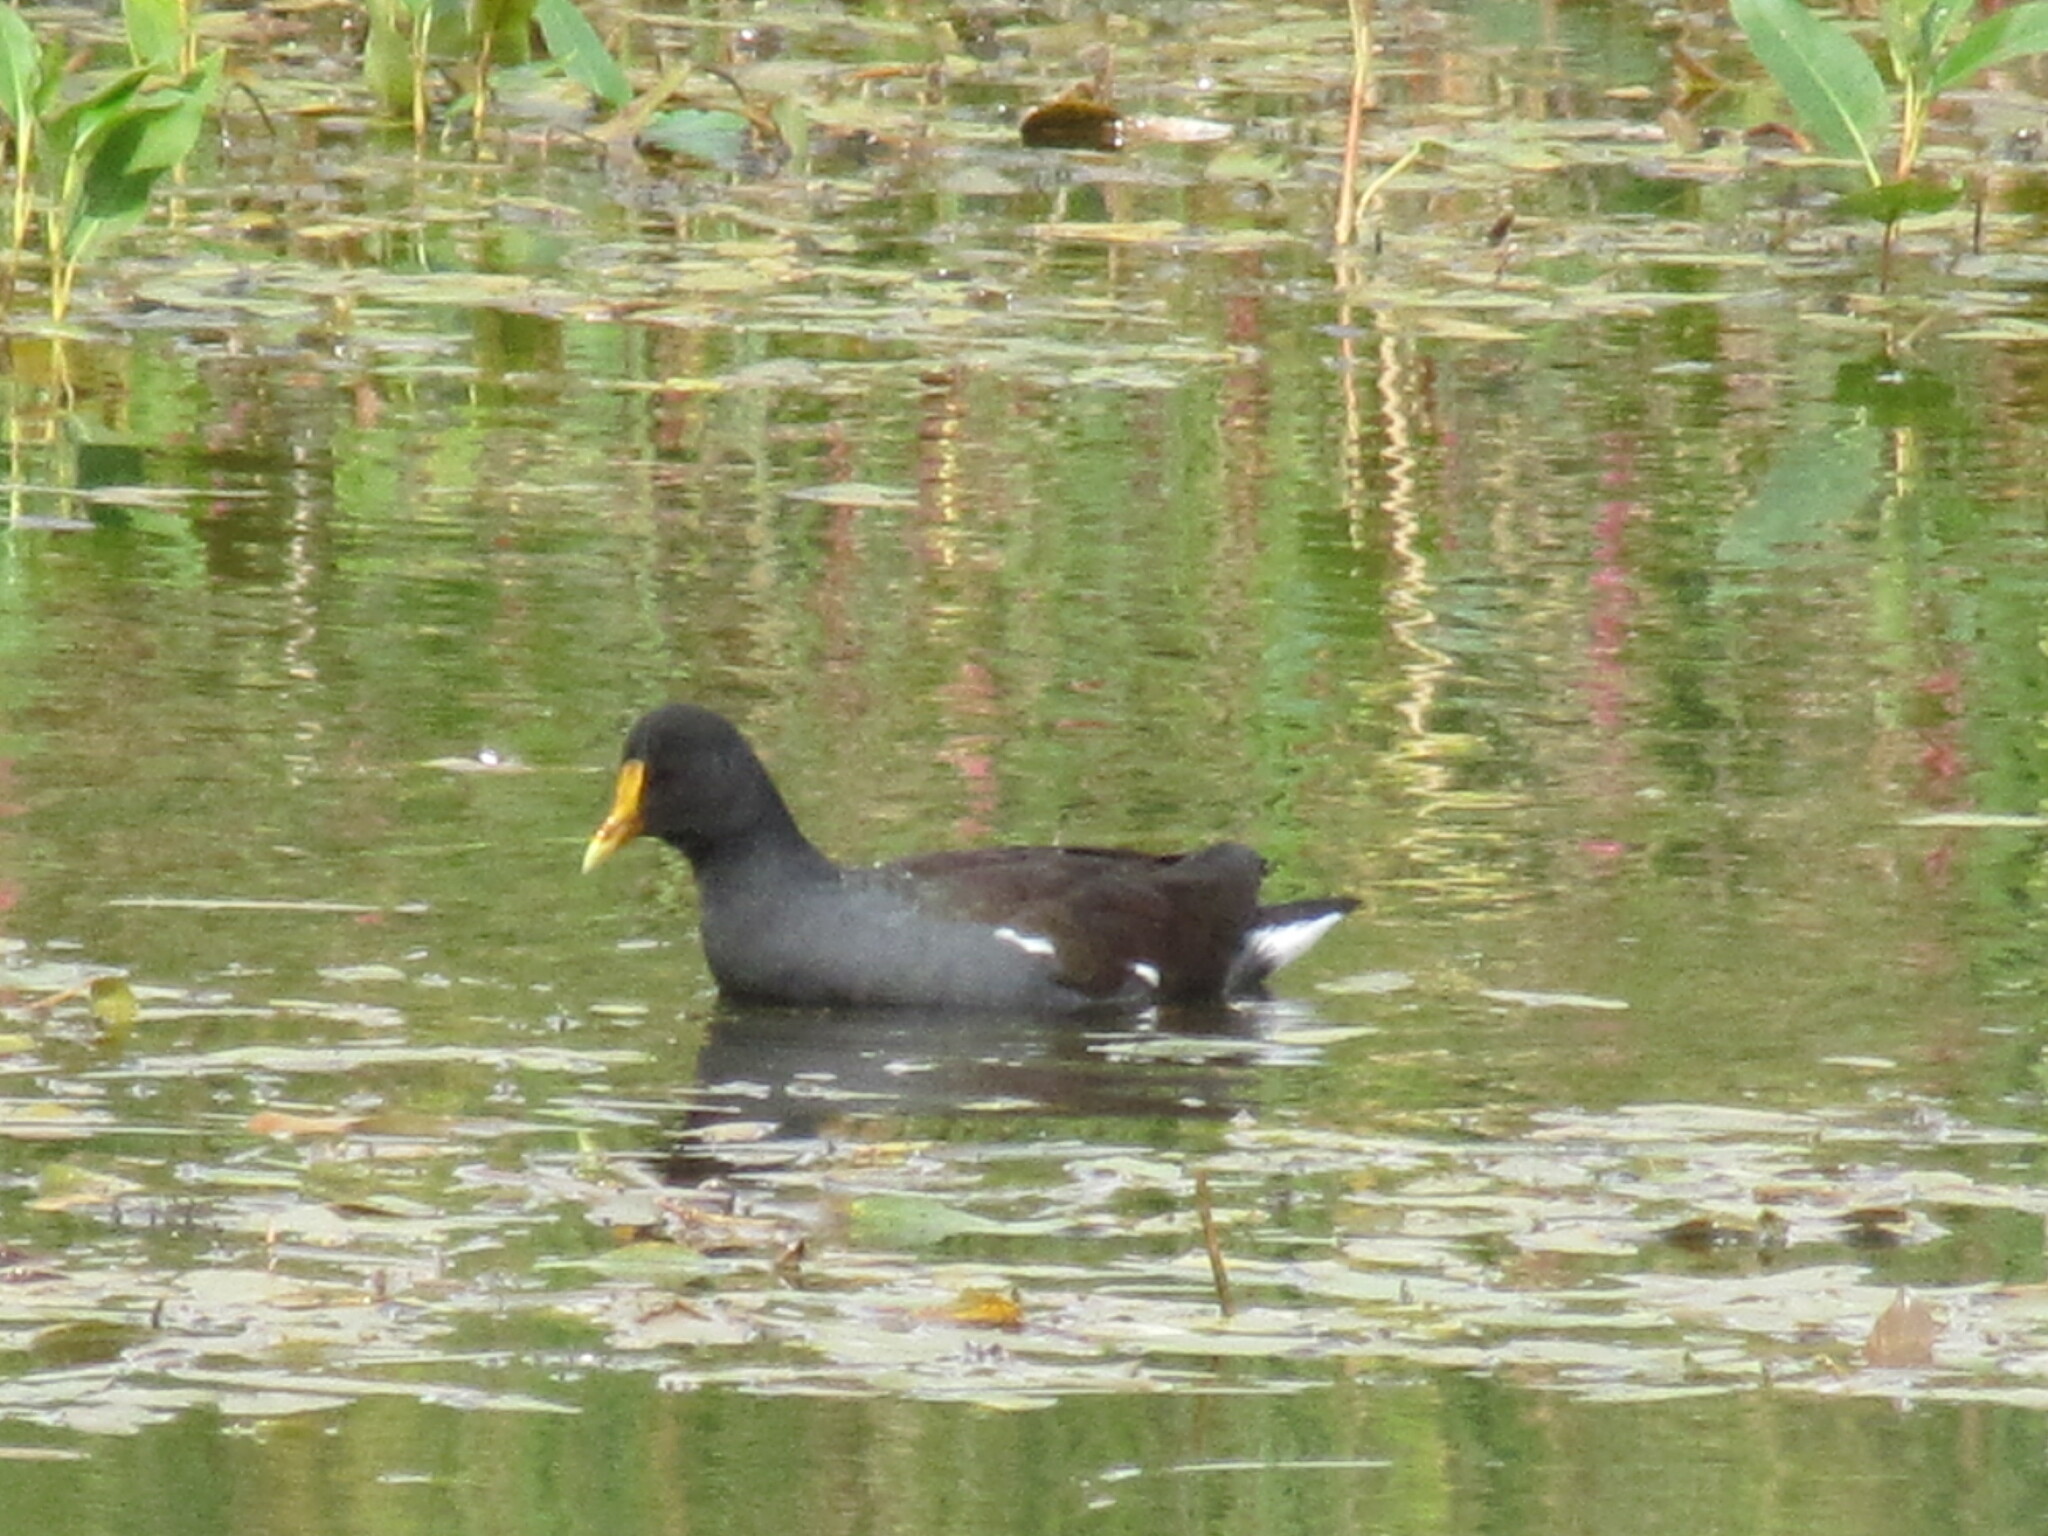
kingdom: Animalia
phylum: Chordata
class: Aves
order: Gruiformes
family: Rallidae
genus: Gallinula
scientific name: Gallinula chloropus
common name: Common moorhen
